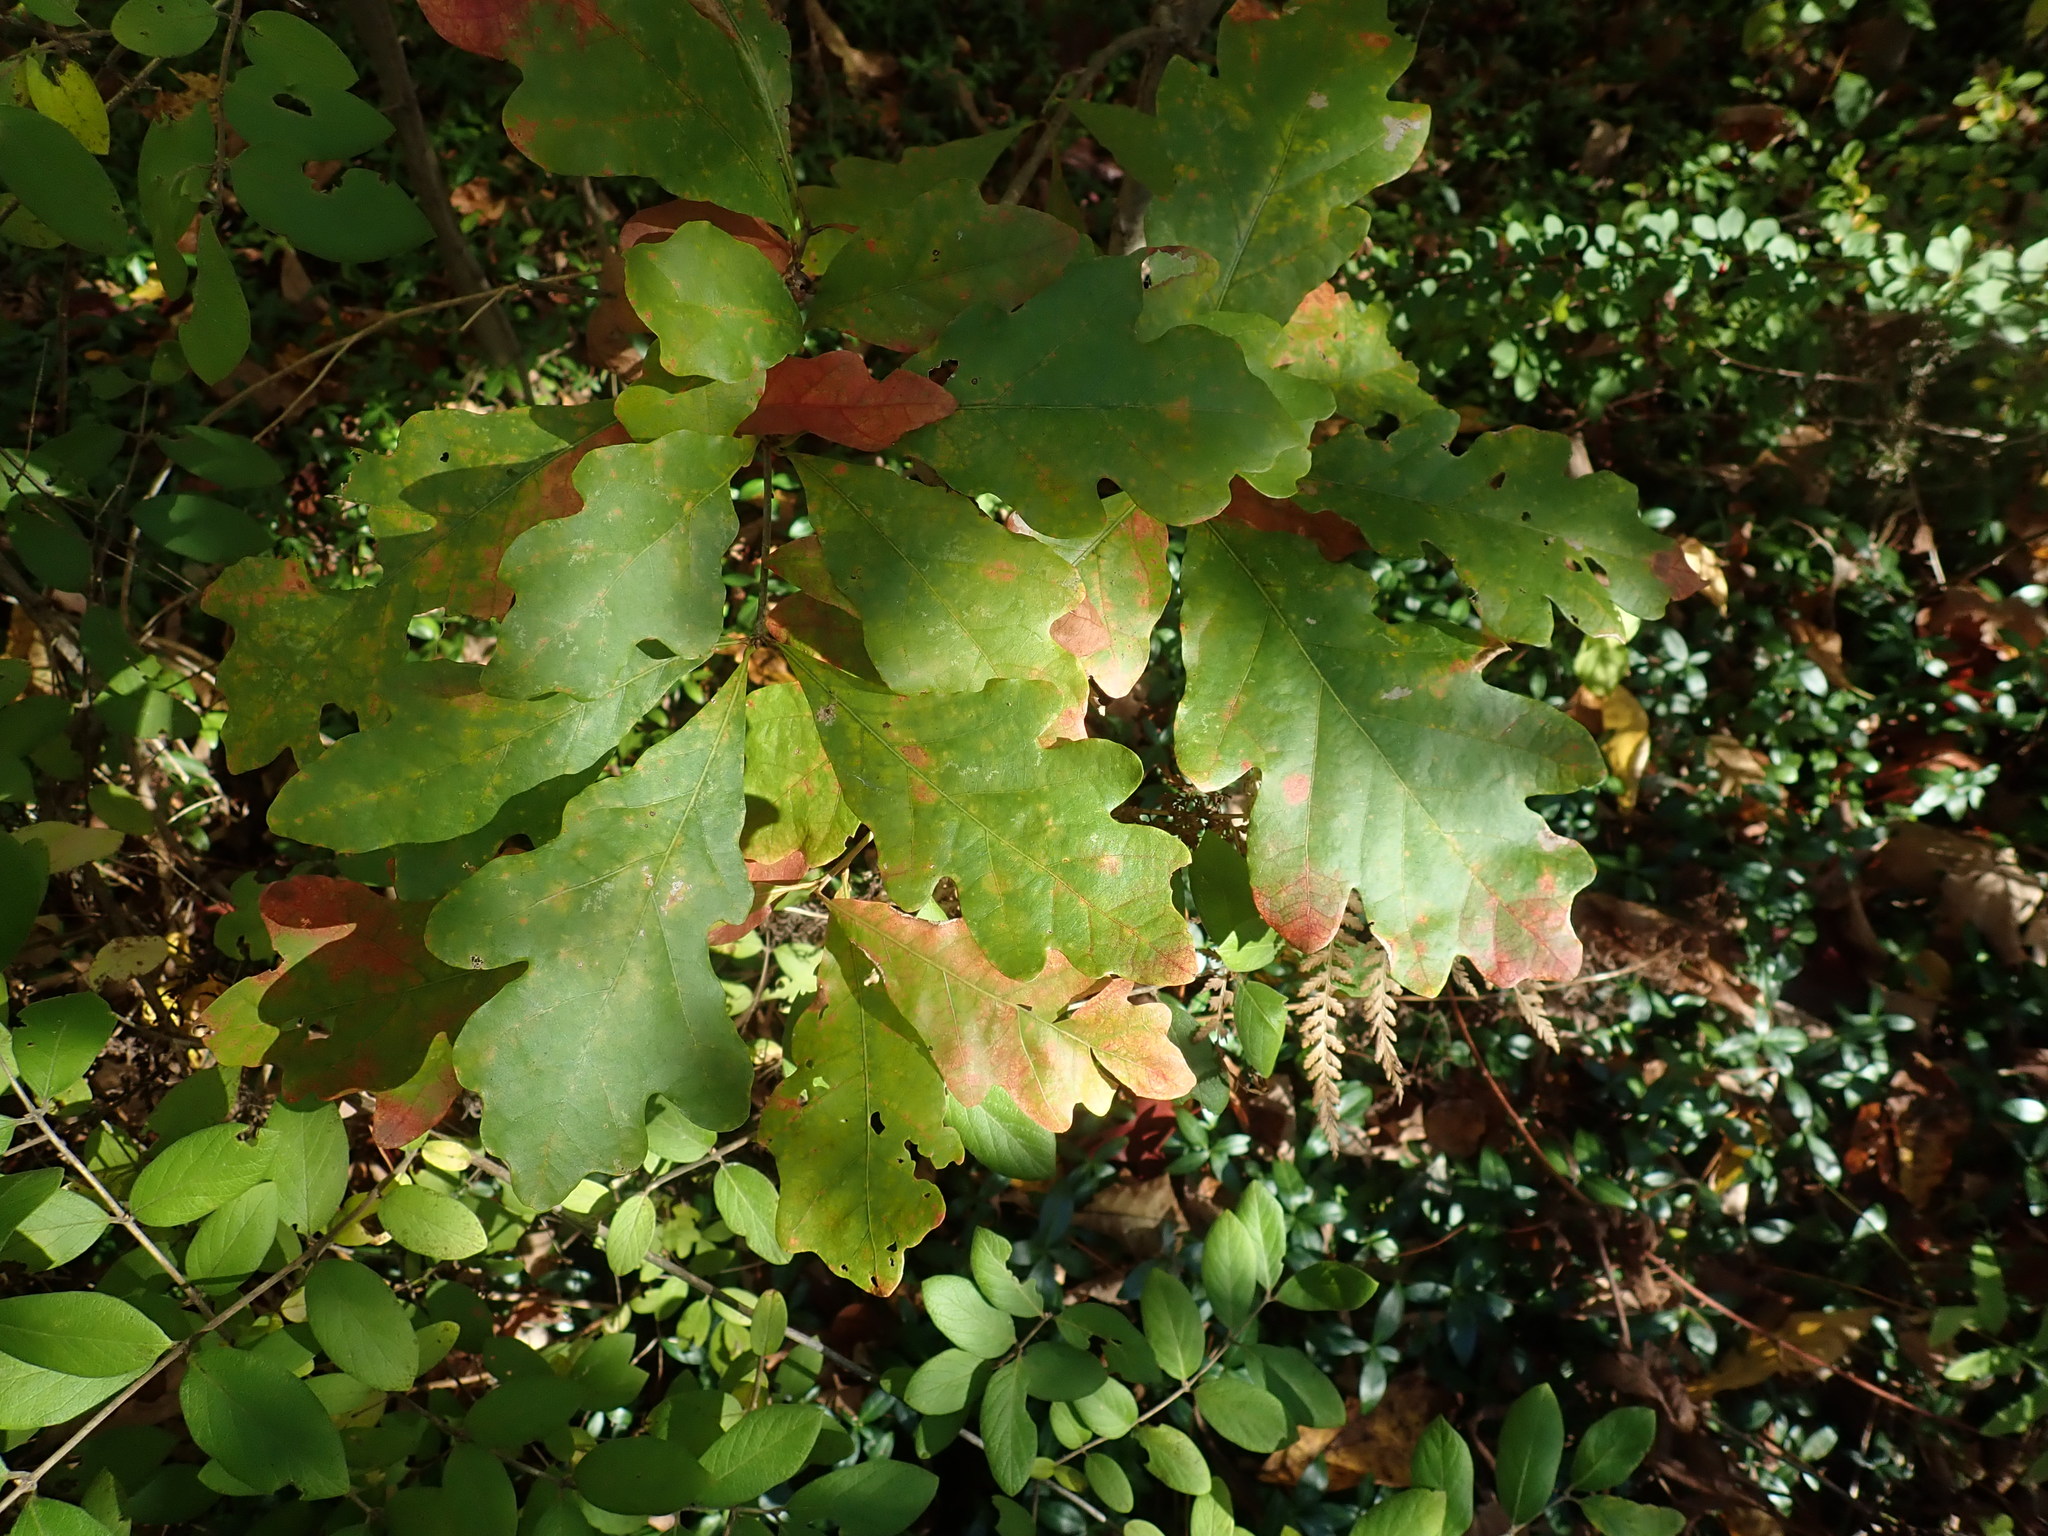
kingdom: Plantae
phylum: Tracheophyta
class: Magnoliopsida
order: Fagales
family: Fagaceae
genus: Quercus
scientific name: Quercus alba
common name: White oak
